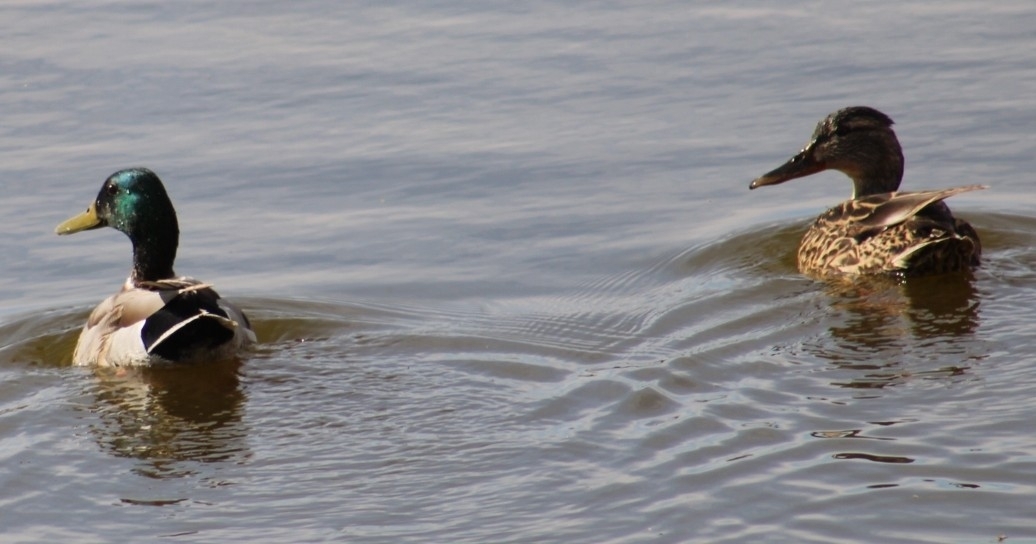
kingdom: Animalia
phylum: Chordata
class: Aves
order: Anseriformes
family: Anatidae
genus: Anas
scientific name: Anas platyrhynchos
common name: Mallard
